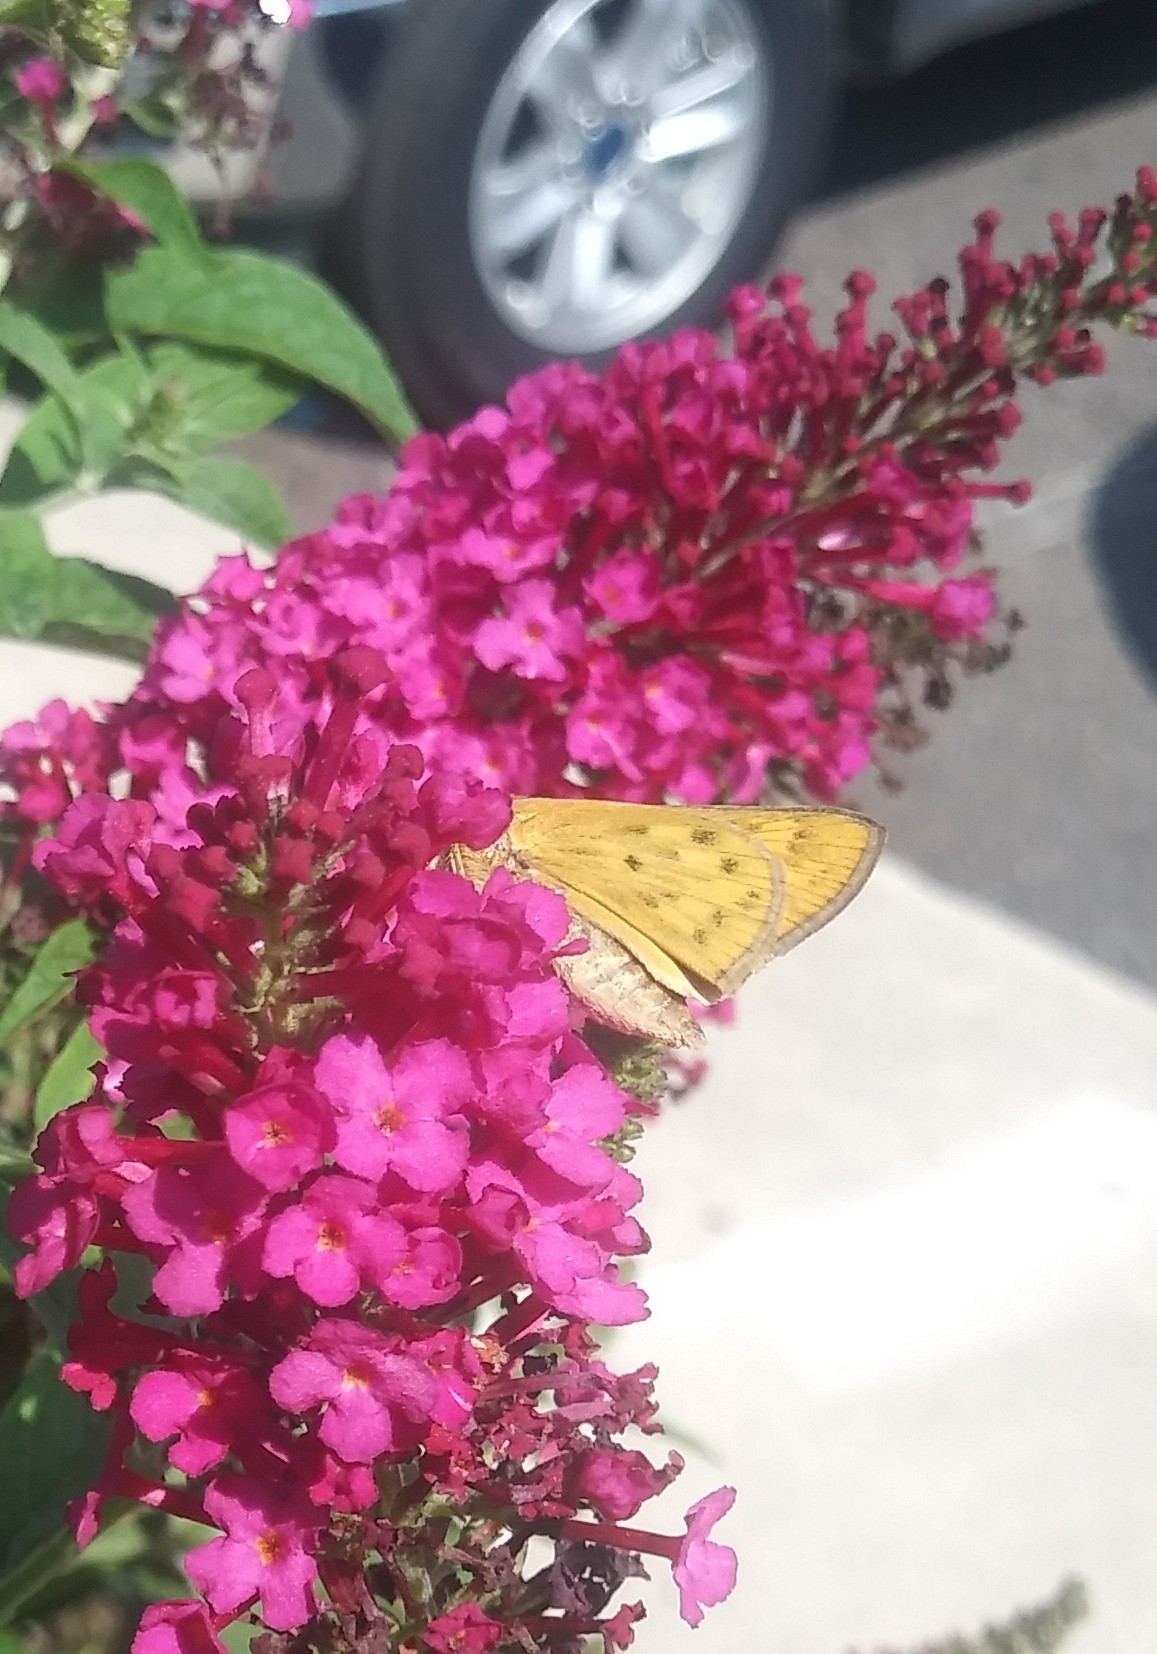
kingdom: Animalia
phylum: Arthropoda
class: Insecta
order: Lepidoptera
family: Hesperiidae
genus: Hylephila
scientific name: Hylephila phyleus
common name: Fiery skipper
